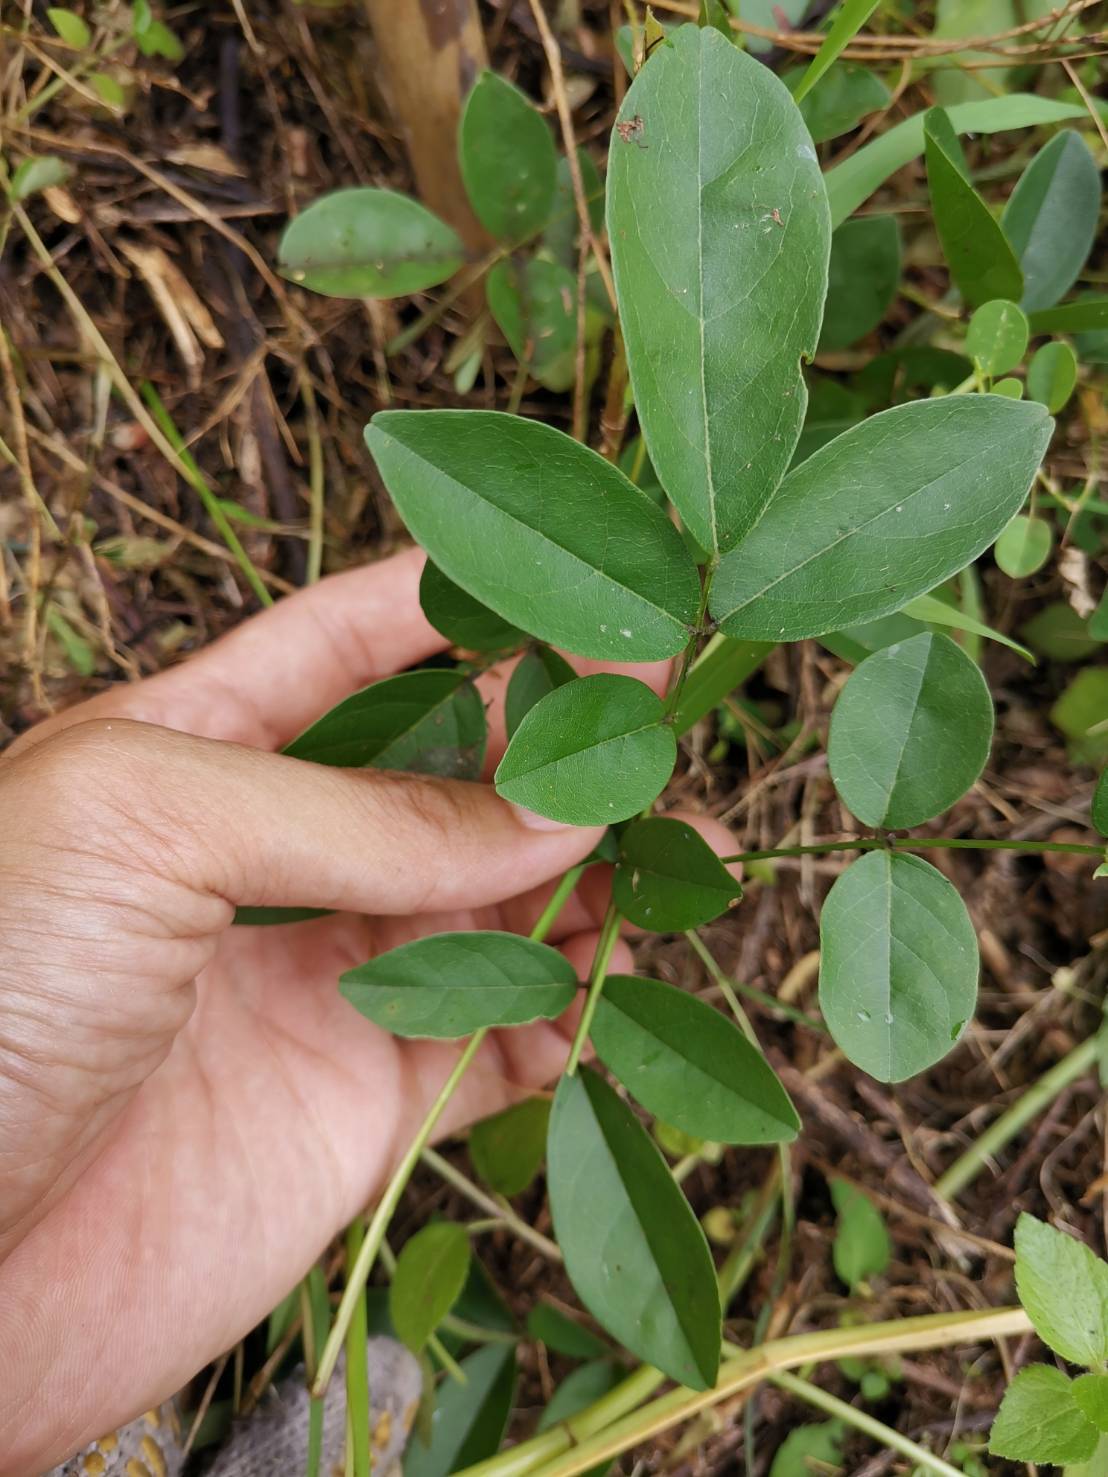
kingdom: Plantae
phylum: Tracheophyta
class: Magnoliopsida
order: Fabales
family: Fabaceae
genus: Wisteriopsis
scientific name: Wisteriopsis reticulata
